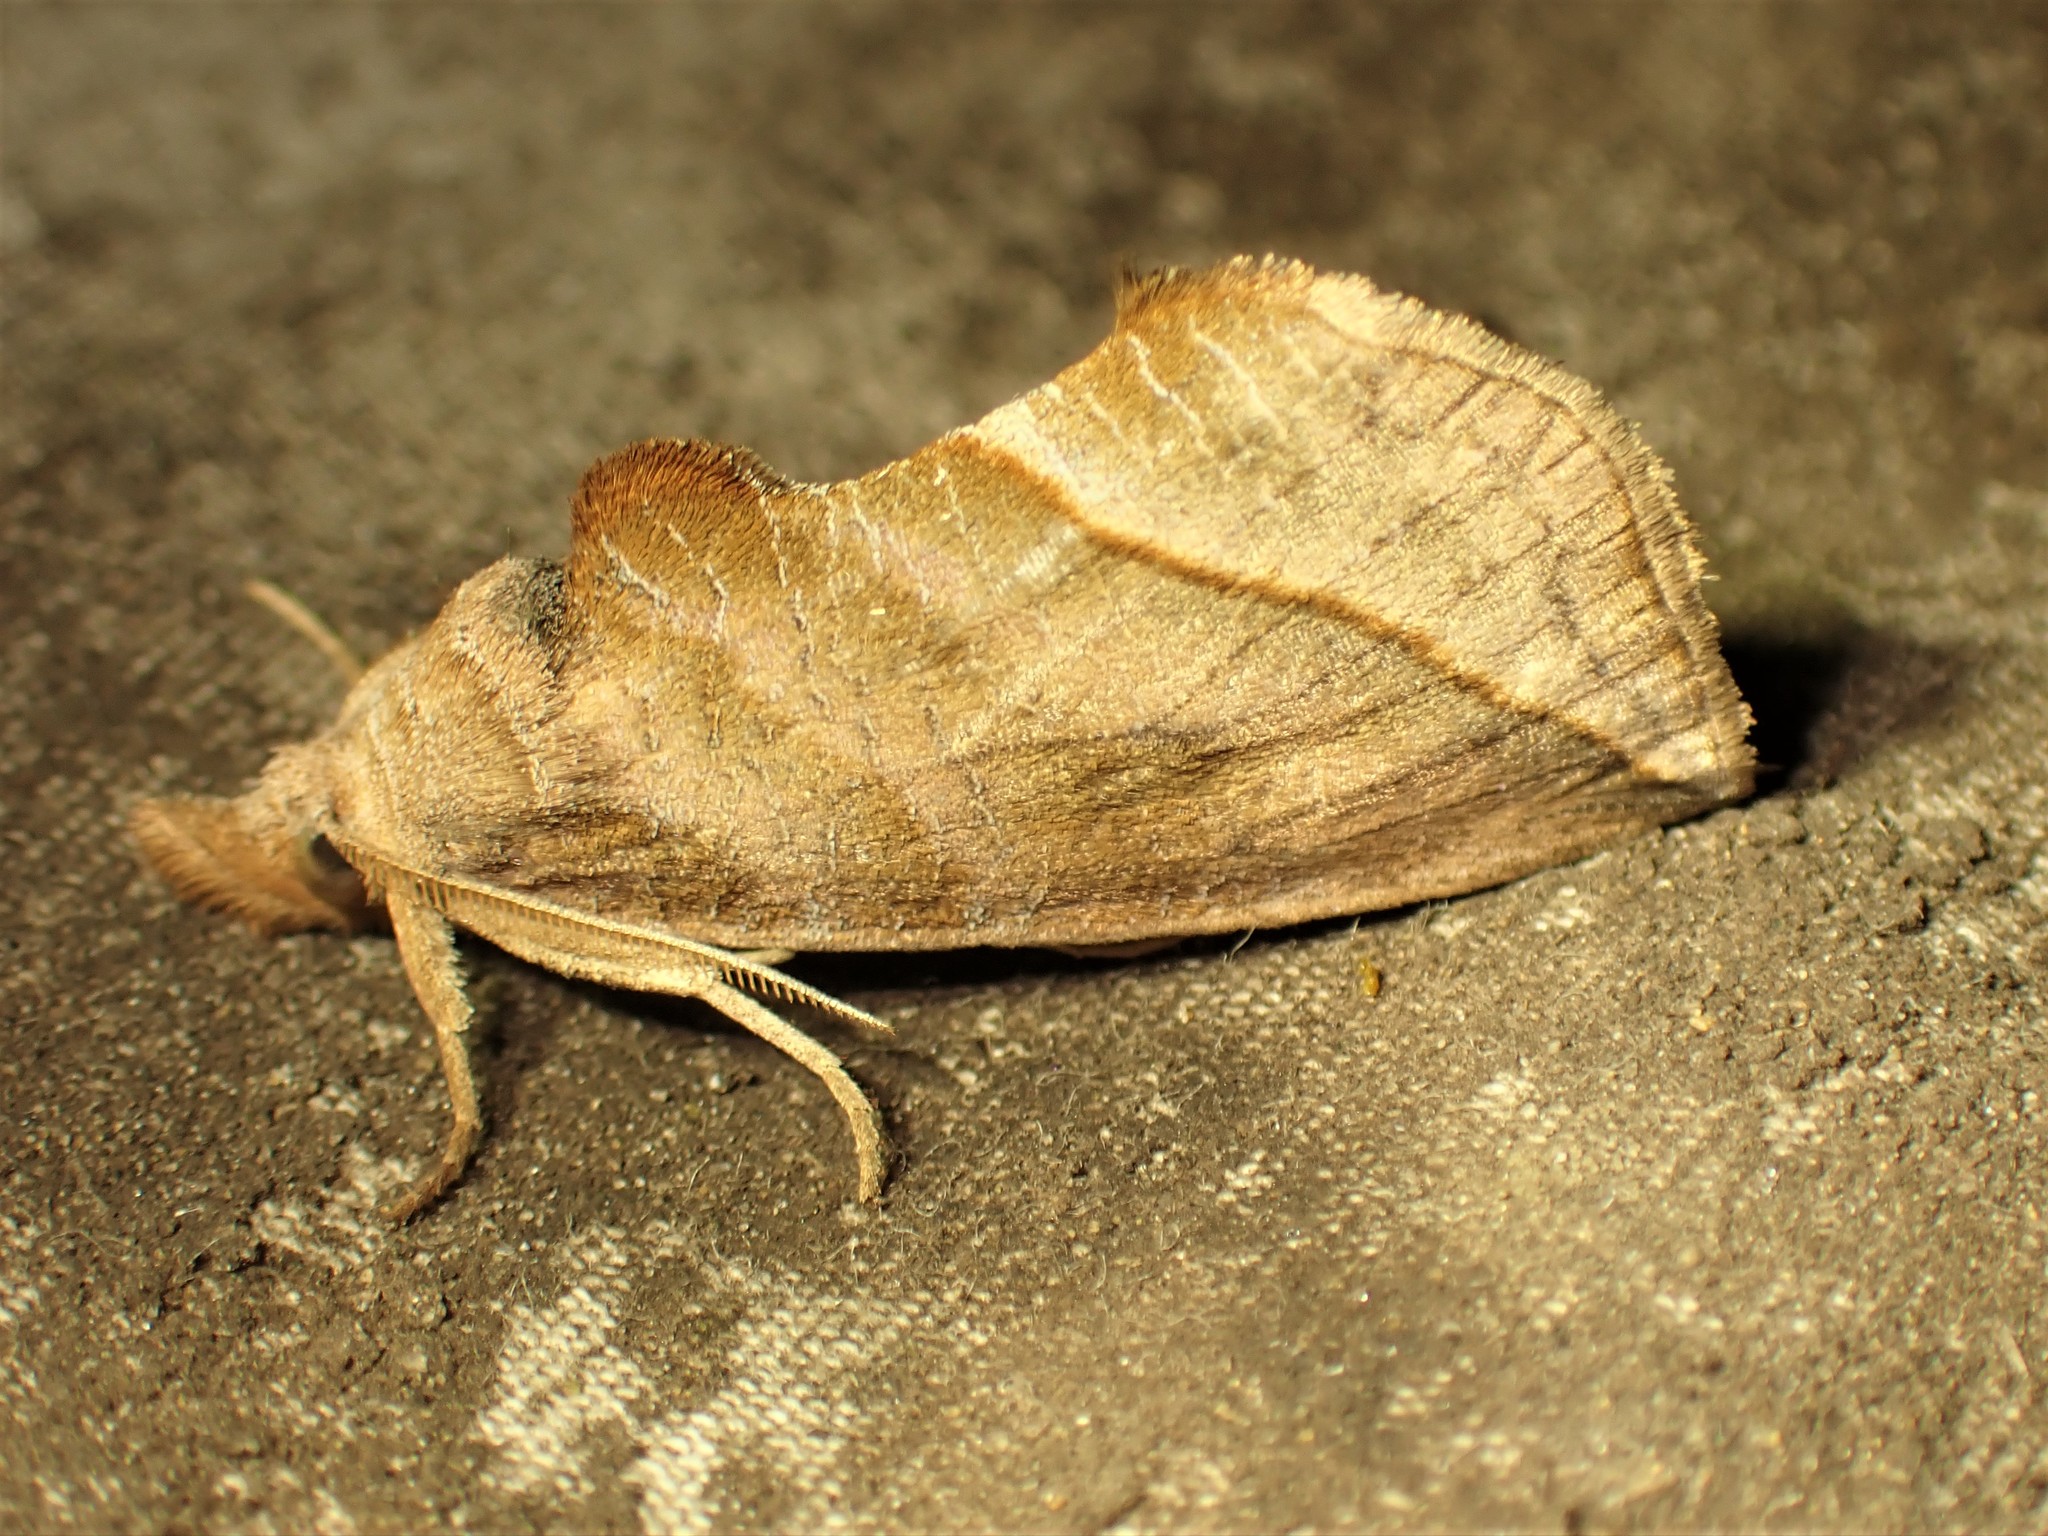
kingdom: Animalia
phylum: Arthropoda
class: Insecta
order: Lepidoptera
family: Erebidae
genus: Calyptra
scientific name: Calyptra canadensis
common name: Canadian owlet
